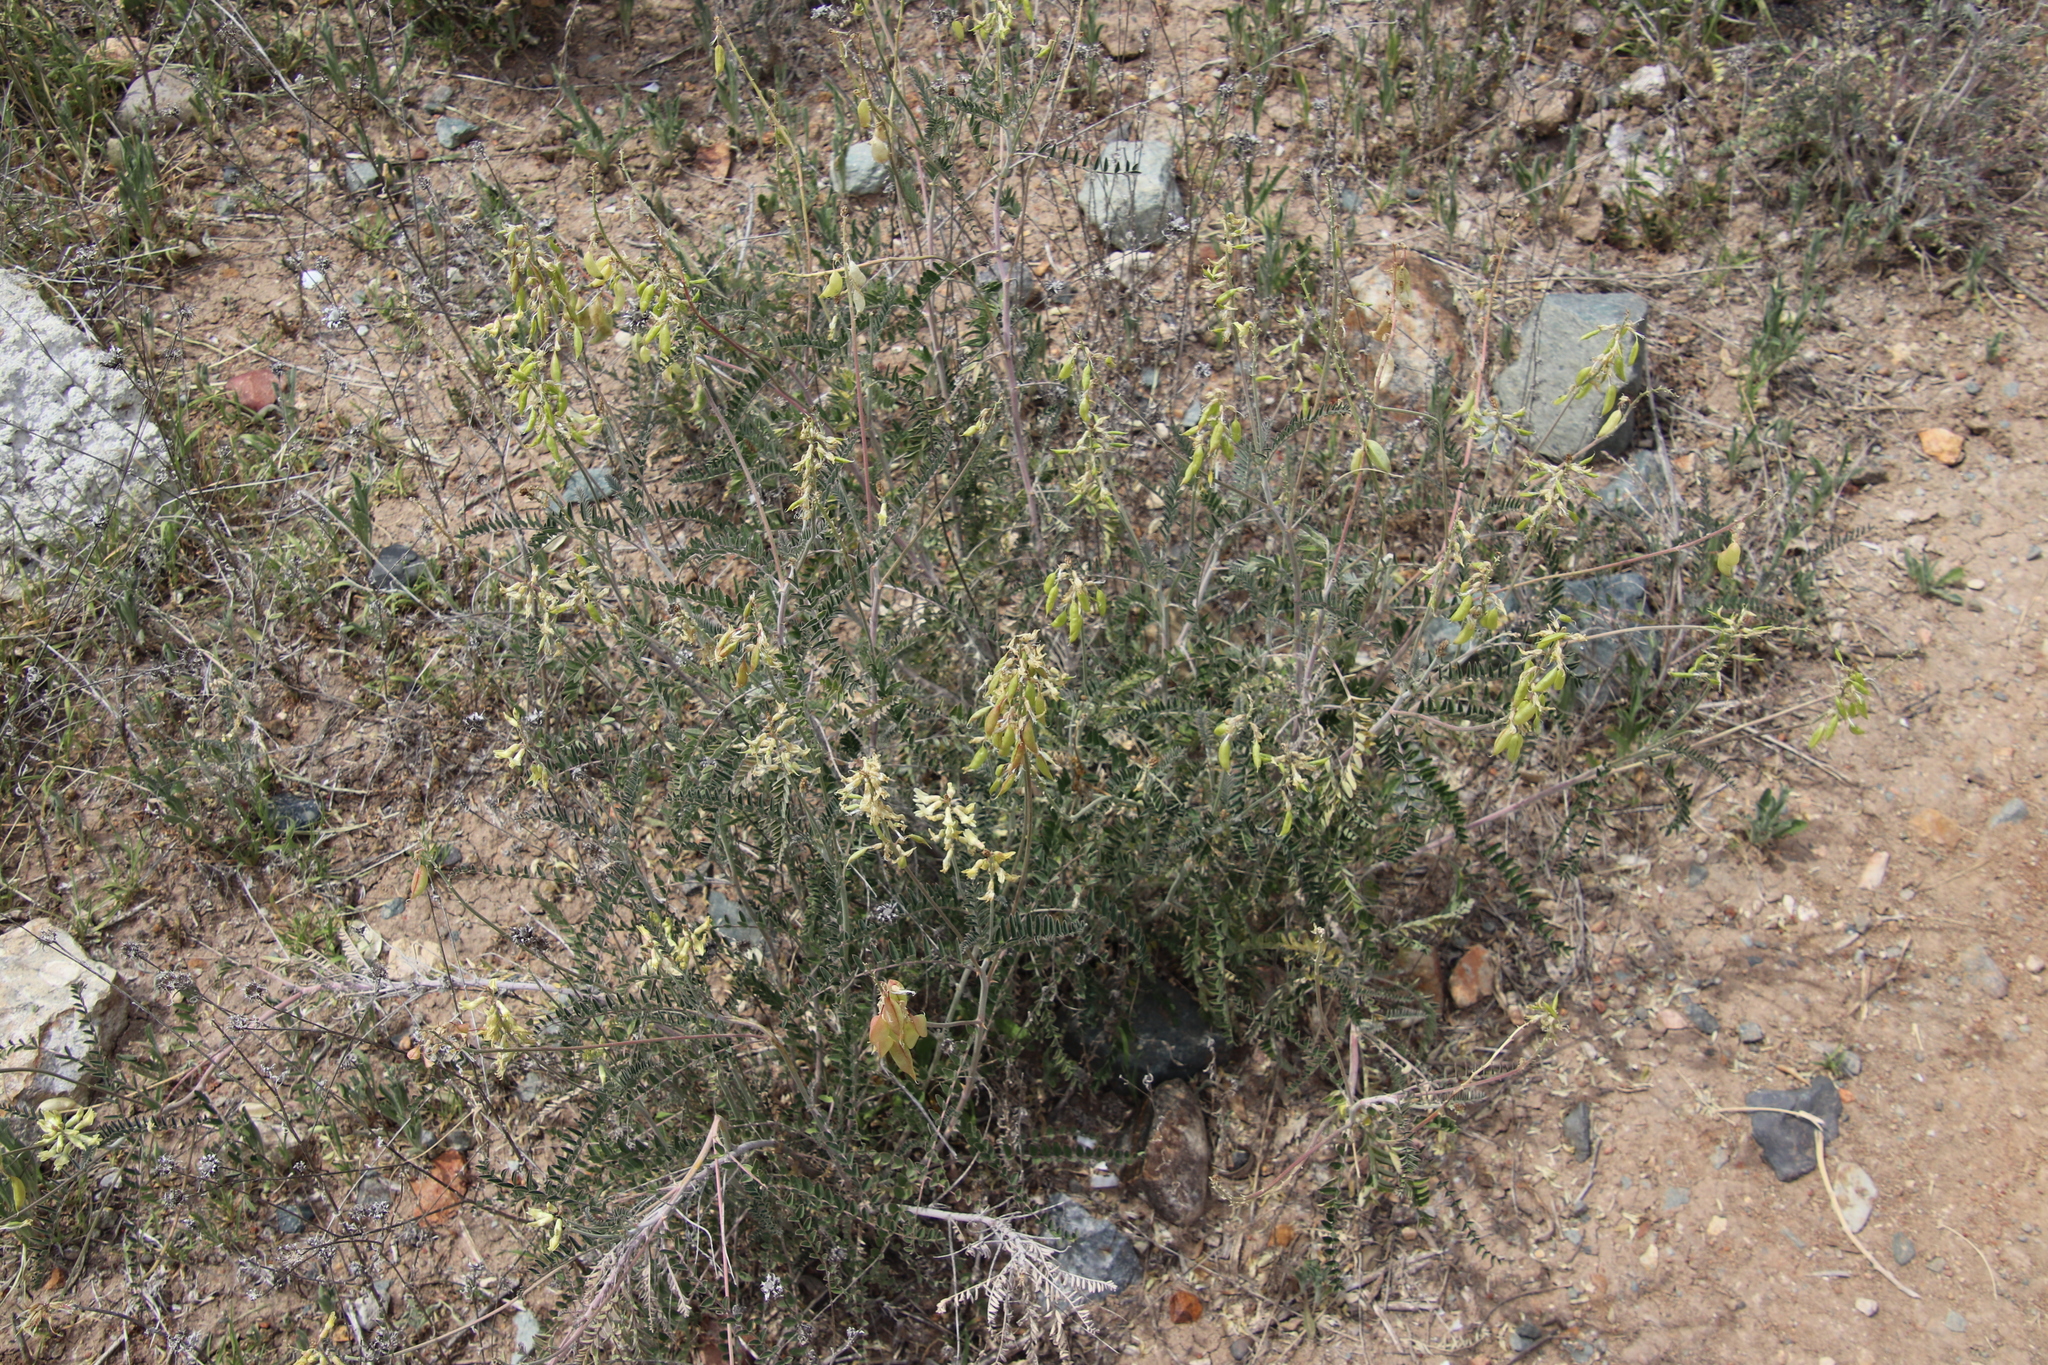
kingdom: Plantae
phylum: Tracheophyta
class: Magnoliopsida
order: Fabales
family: Fabaceae
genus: Astragalus
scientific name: Astragalus trichopodus
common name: Santa barbara milk-vetch
